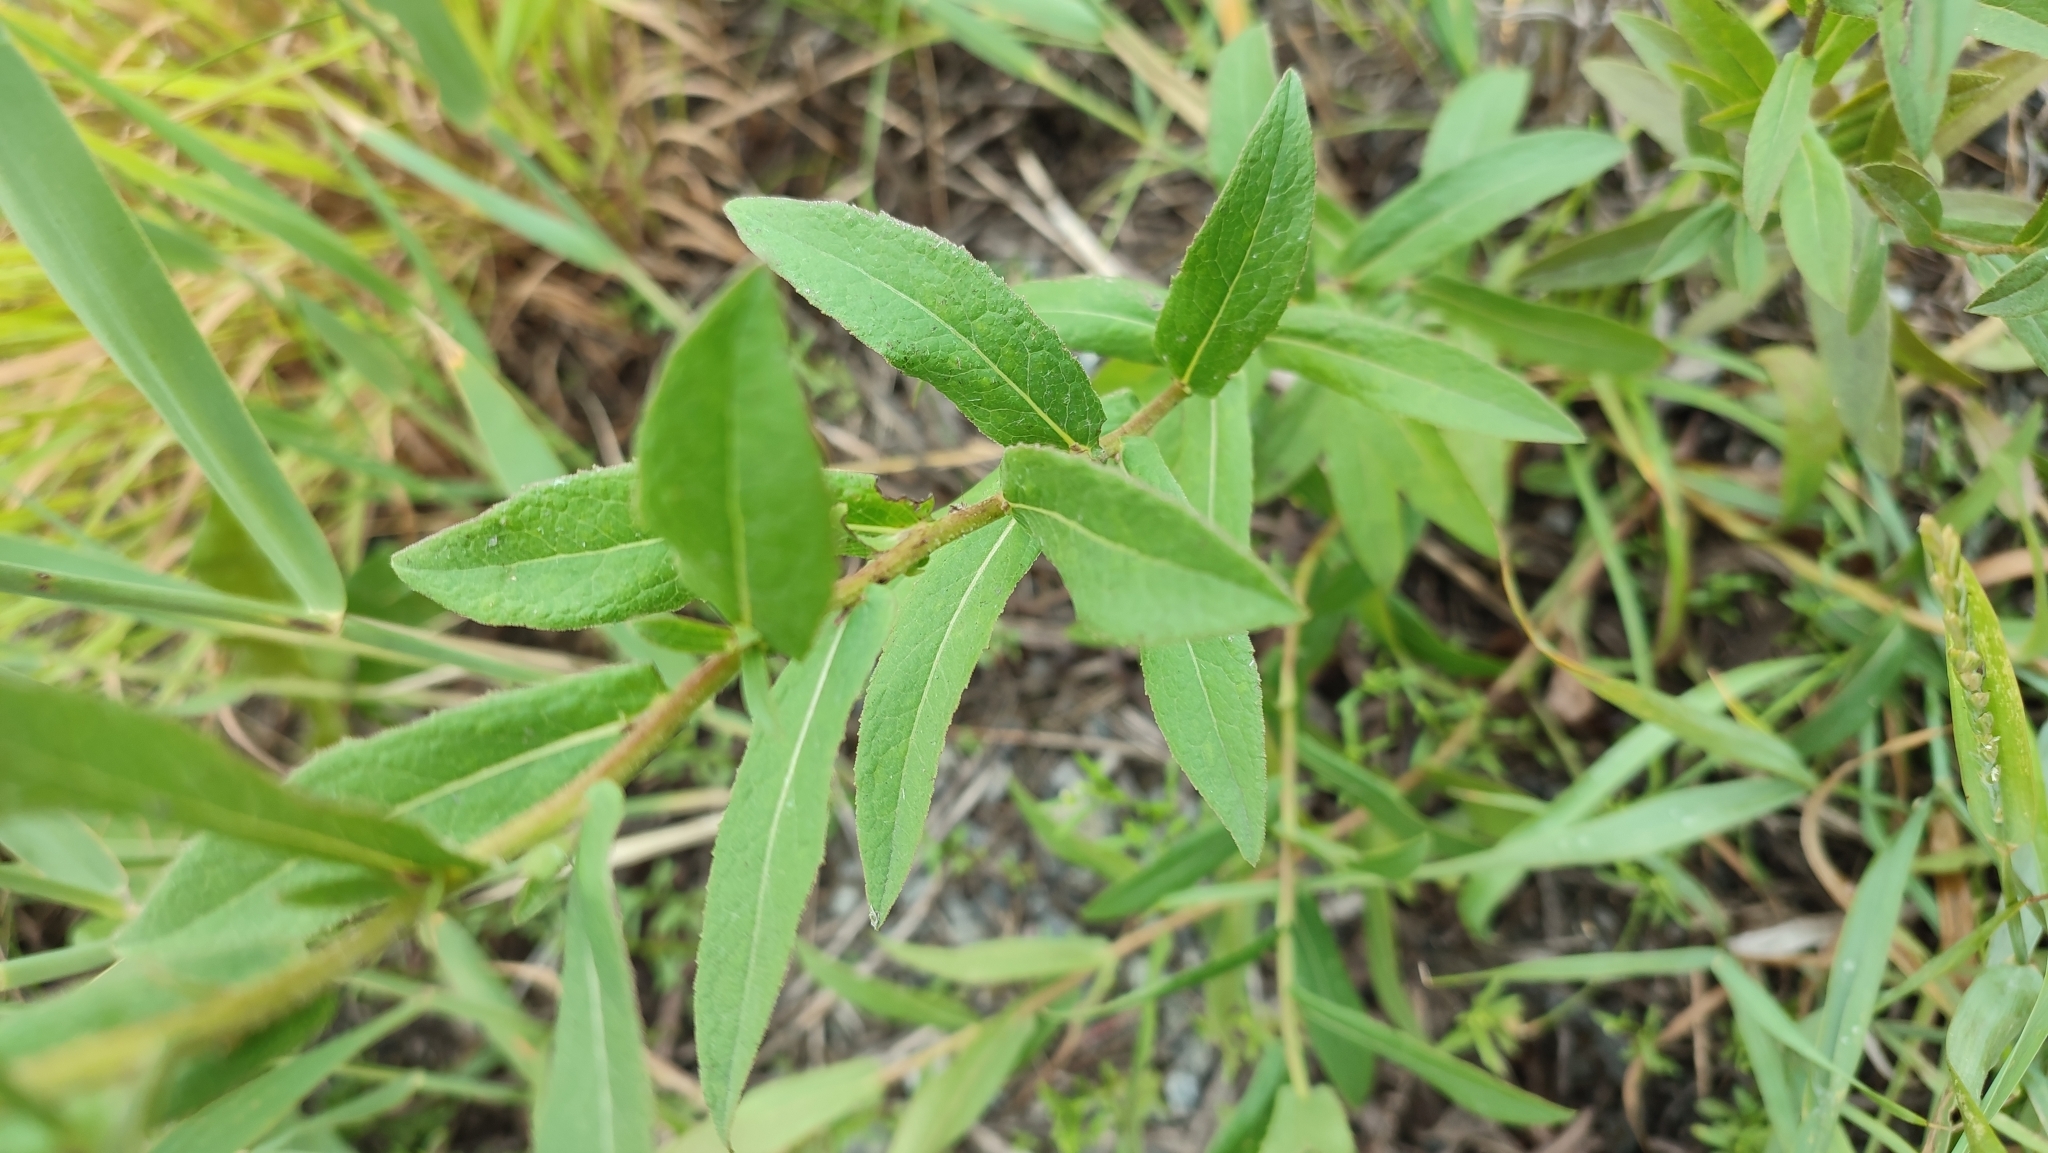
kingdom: Plantae
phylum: Tracheophyta
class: Magnoliopsida
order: Asterales
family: Asteraceae
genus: Pentanema
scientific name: Pentanema salicinum
